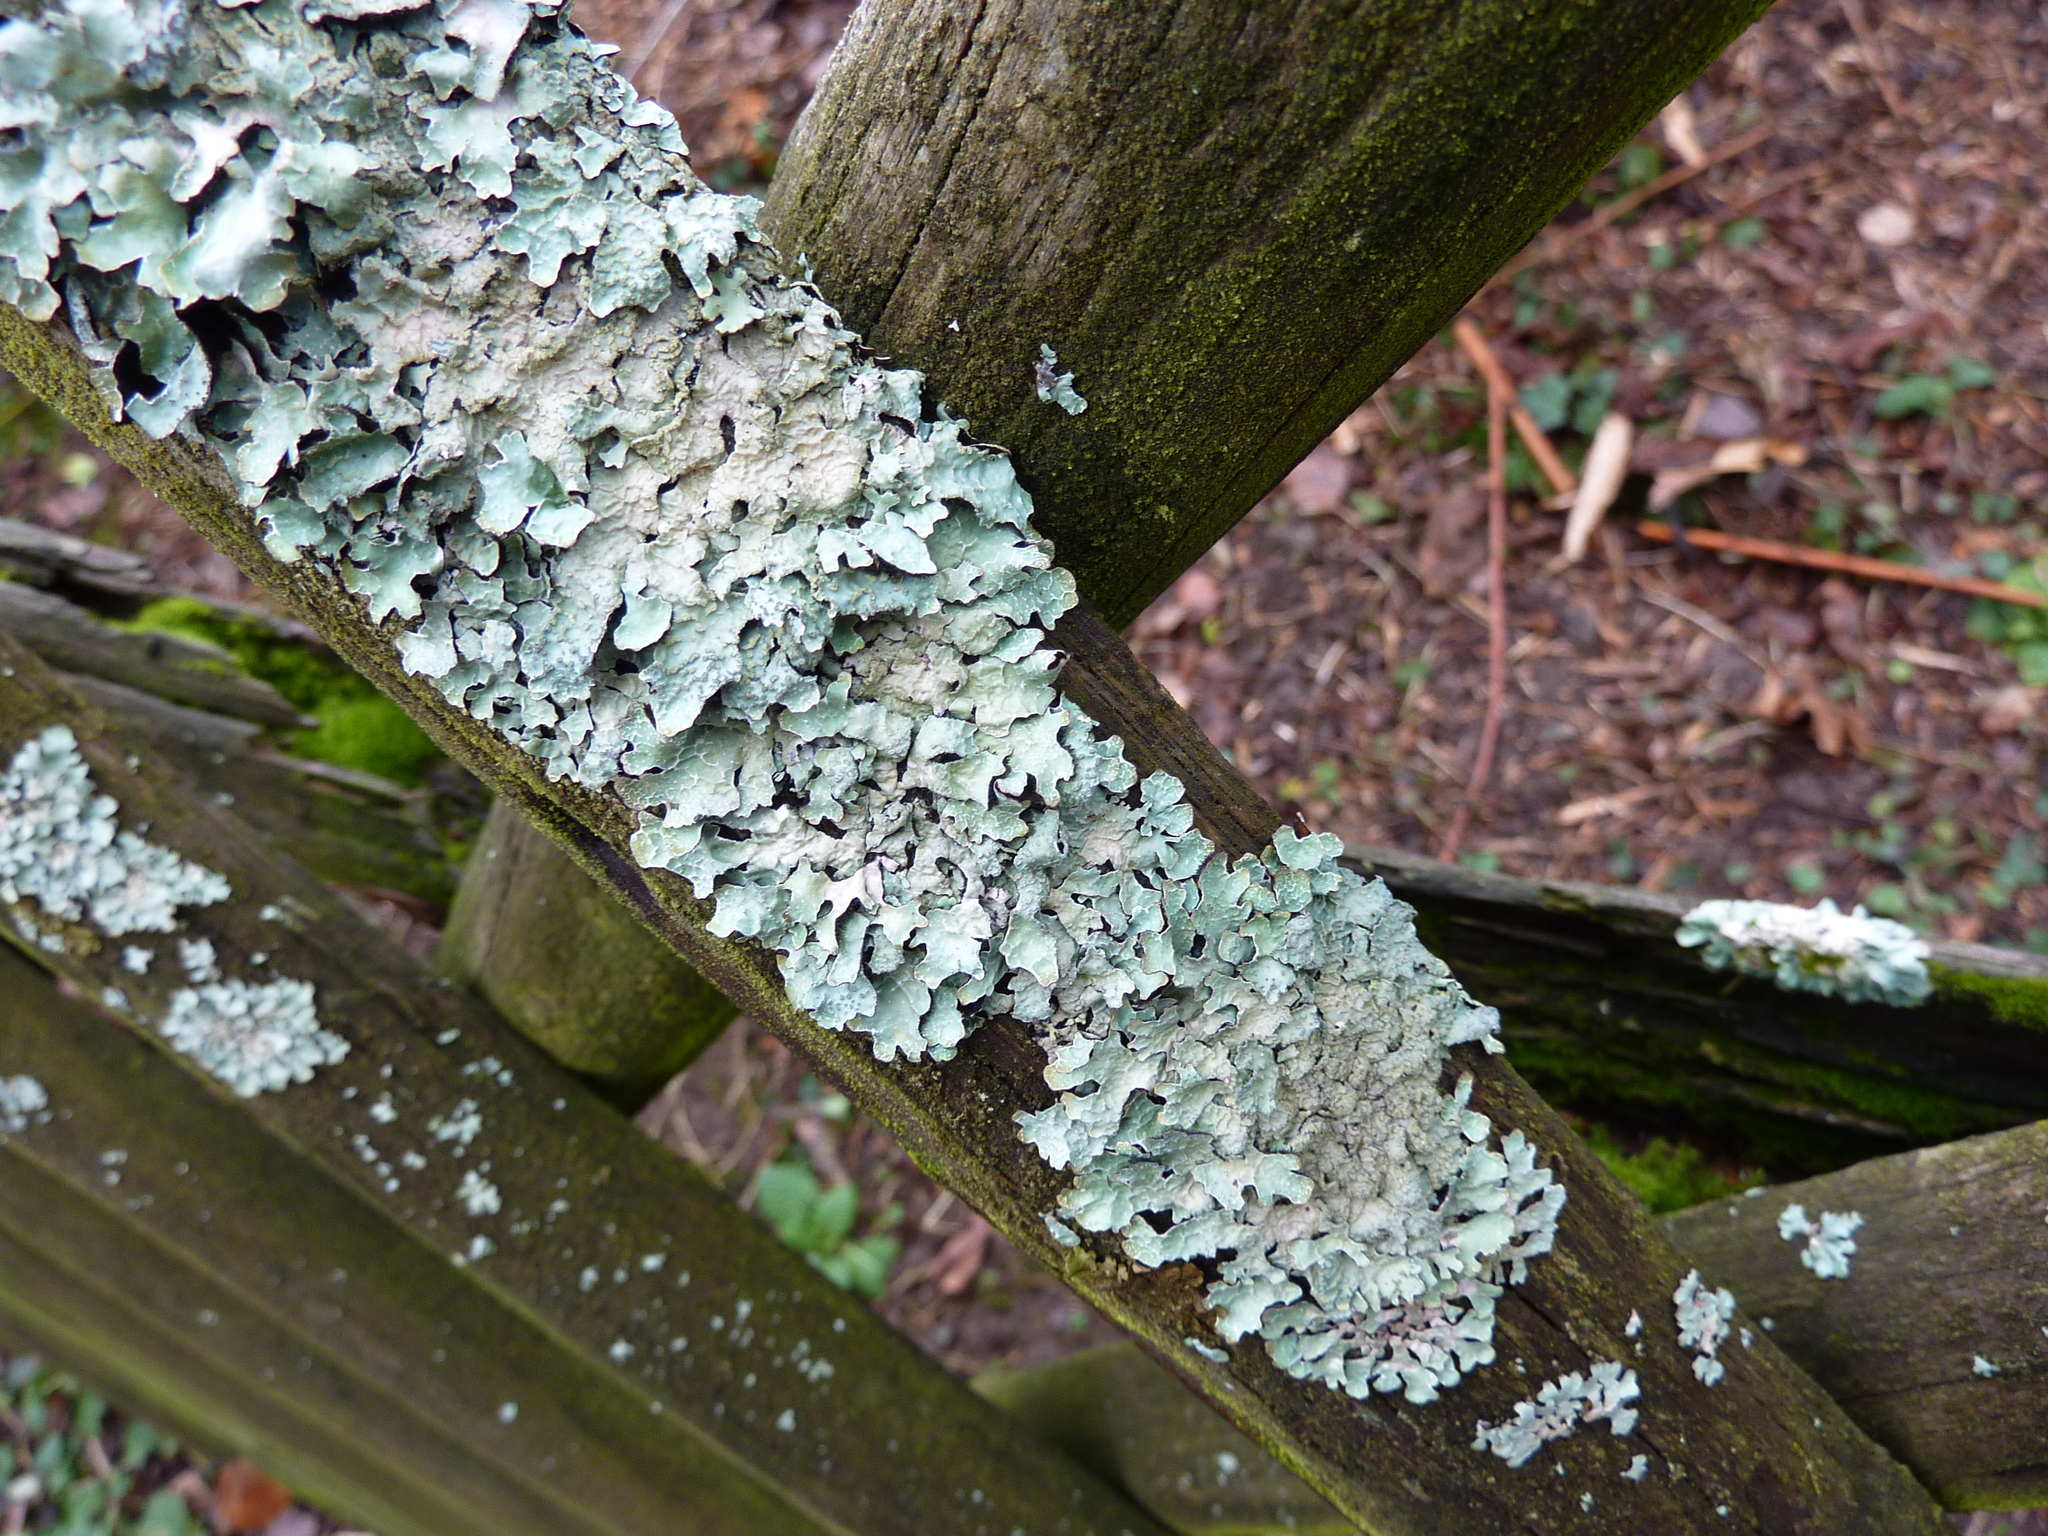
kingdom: Fungi
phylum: Ascomycota
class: Lecanoromycetes
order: Lecanorales
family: Parmeliaceae
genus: Parmelia
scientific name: Parmelia sulcata
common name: Netted shield lichen
